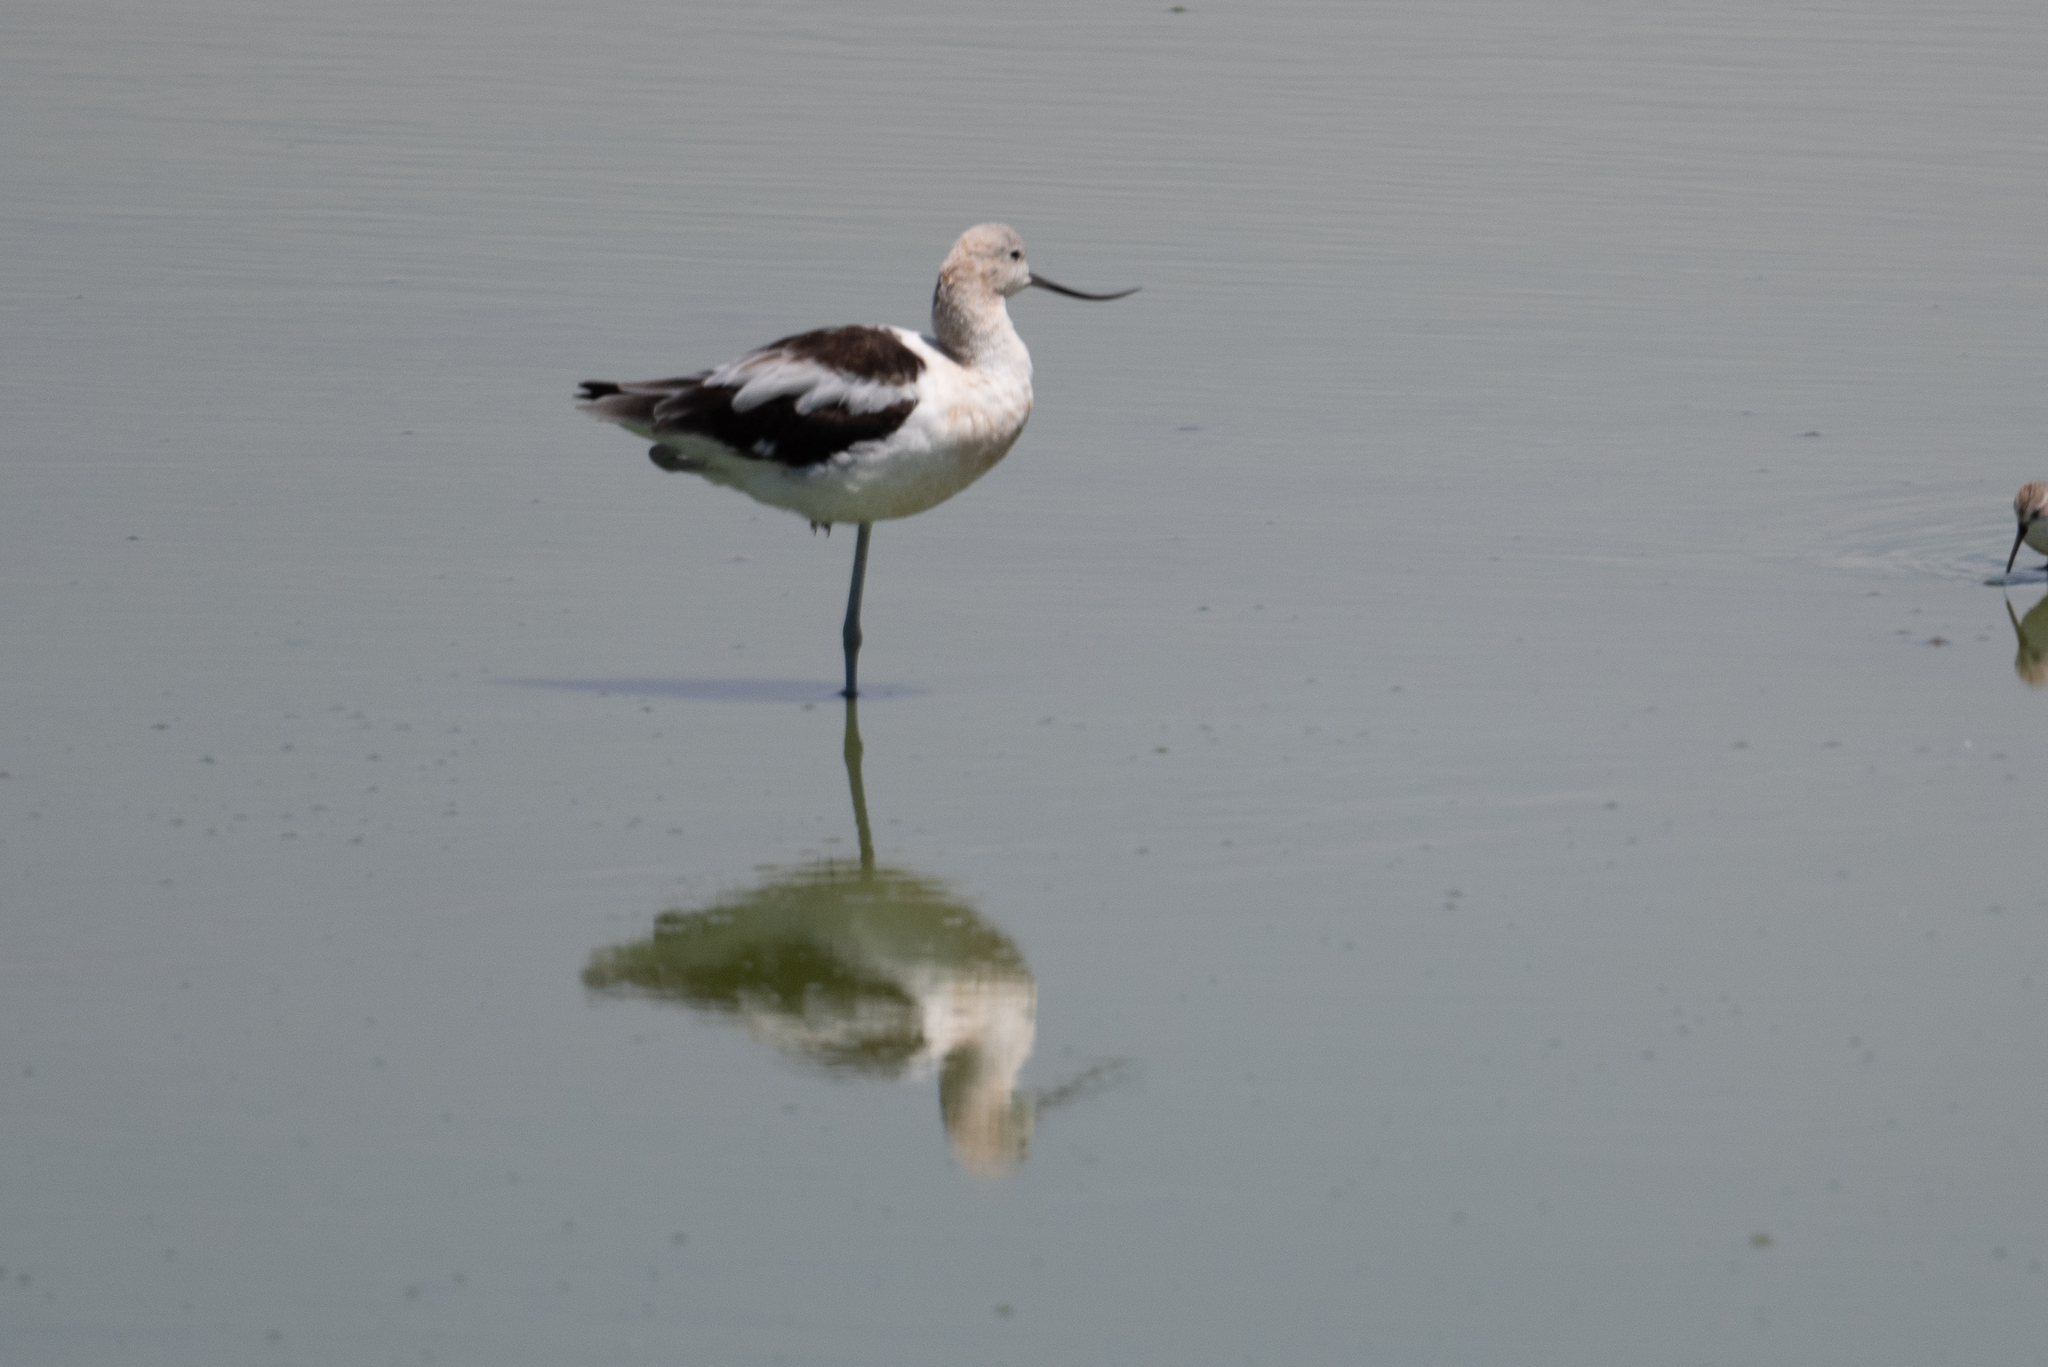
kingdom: Animalia
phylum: Chordata
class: Aves
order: Charadriiformes
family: Recurvirostridae
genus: Recurvirostra
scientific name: Recurvirostra americana
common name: American avocet
